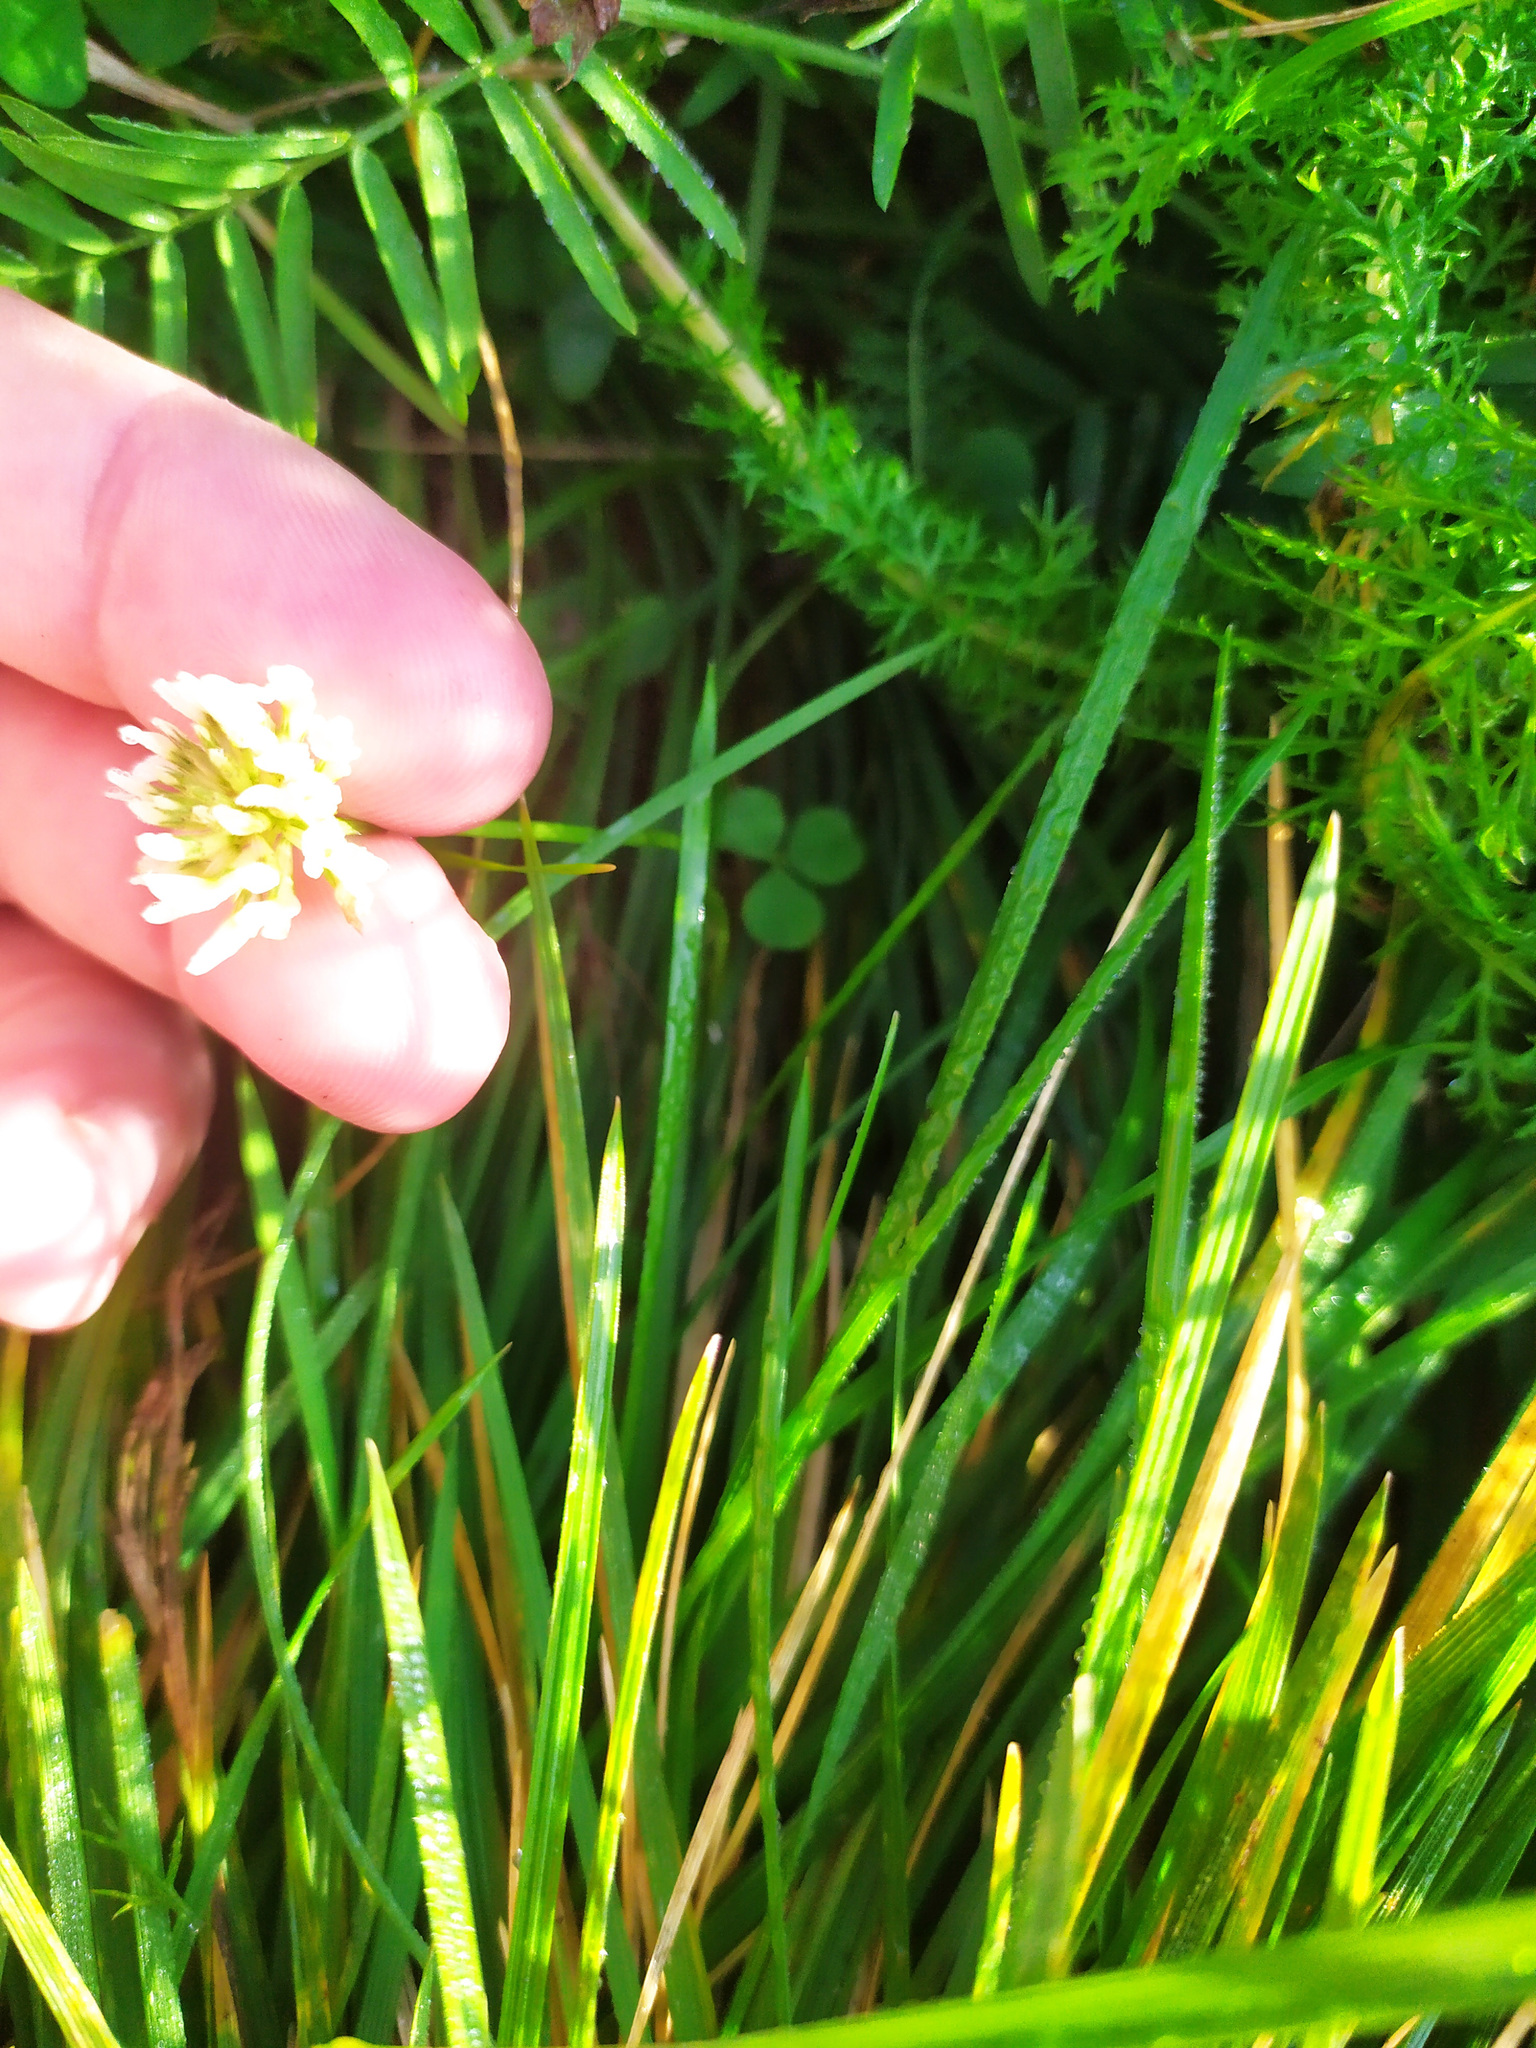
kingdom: Plantae
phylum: Tracheophyta
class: Magnoliopsida
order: Fabales
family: Fabaceae
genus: Trifolium
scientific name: Trifolium repens
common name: White clover
